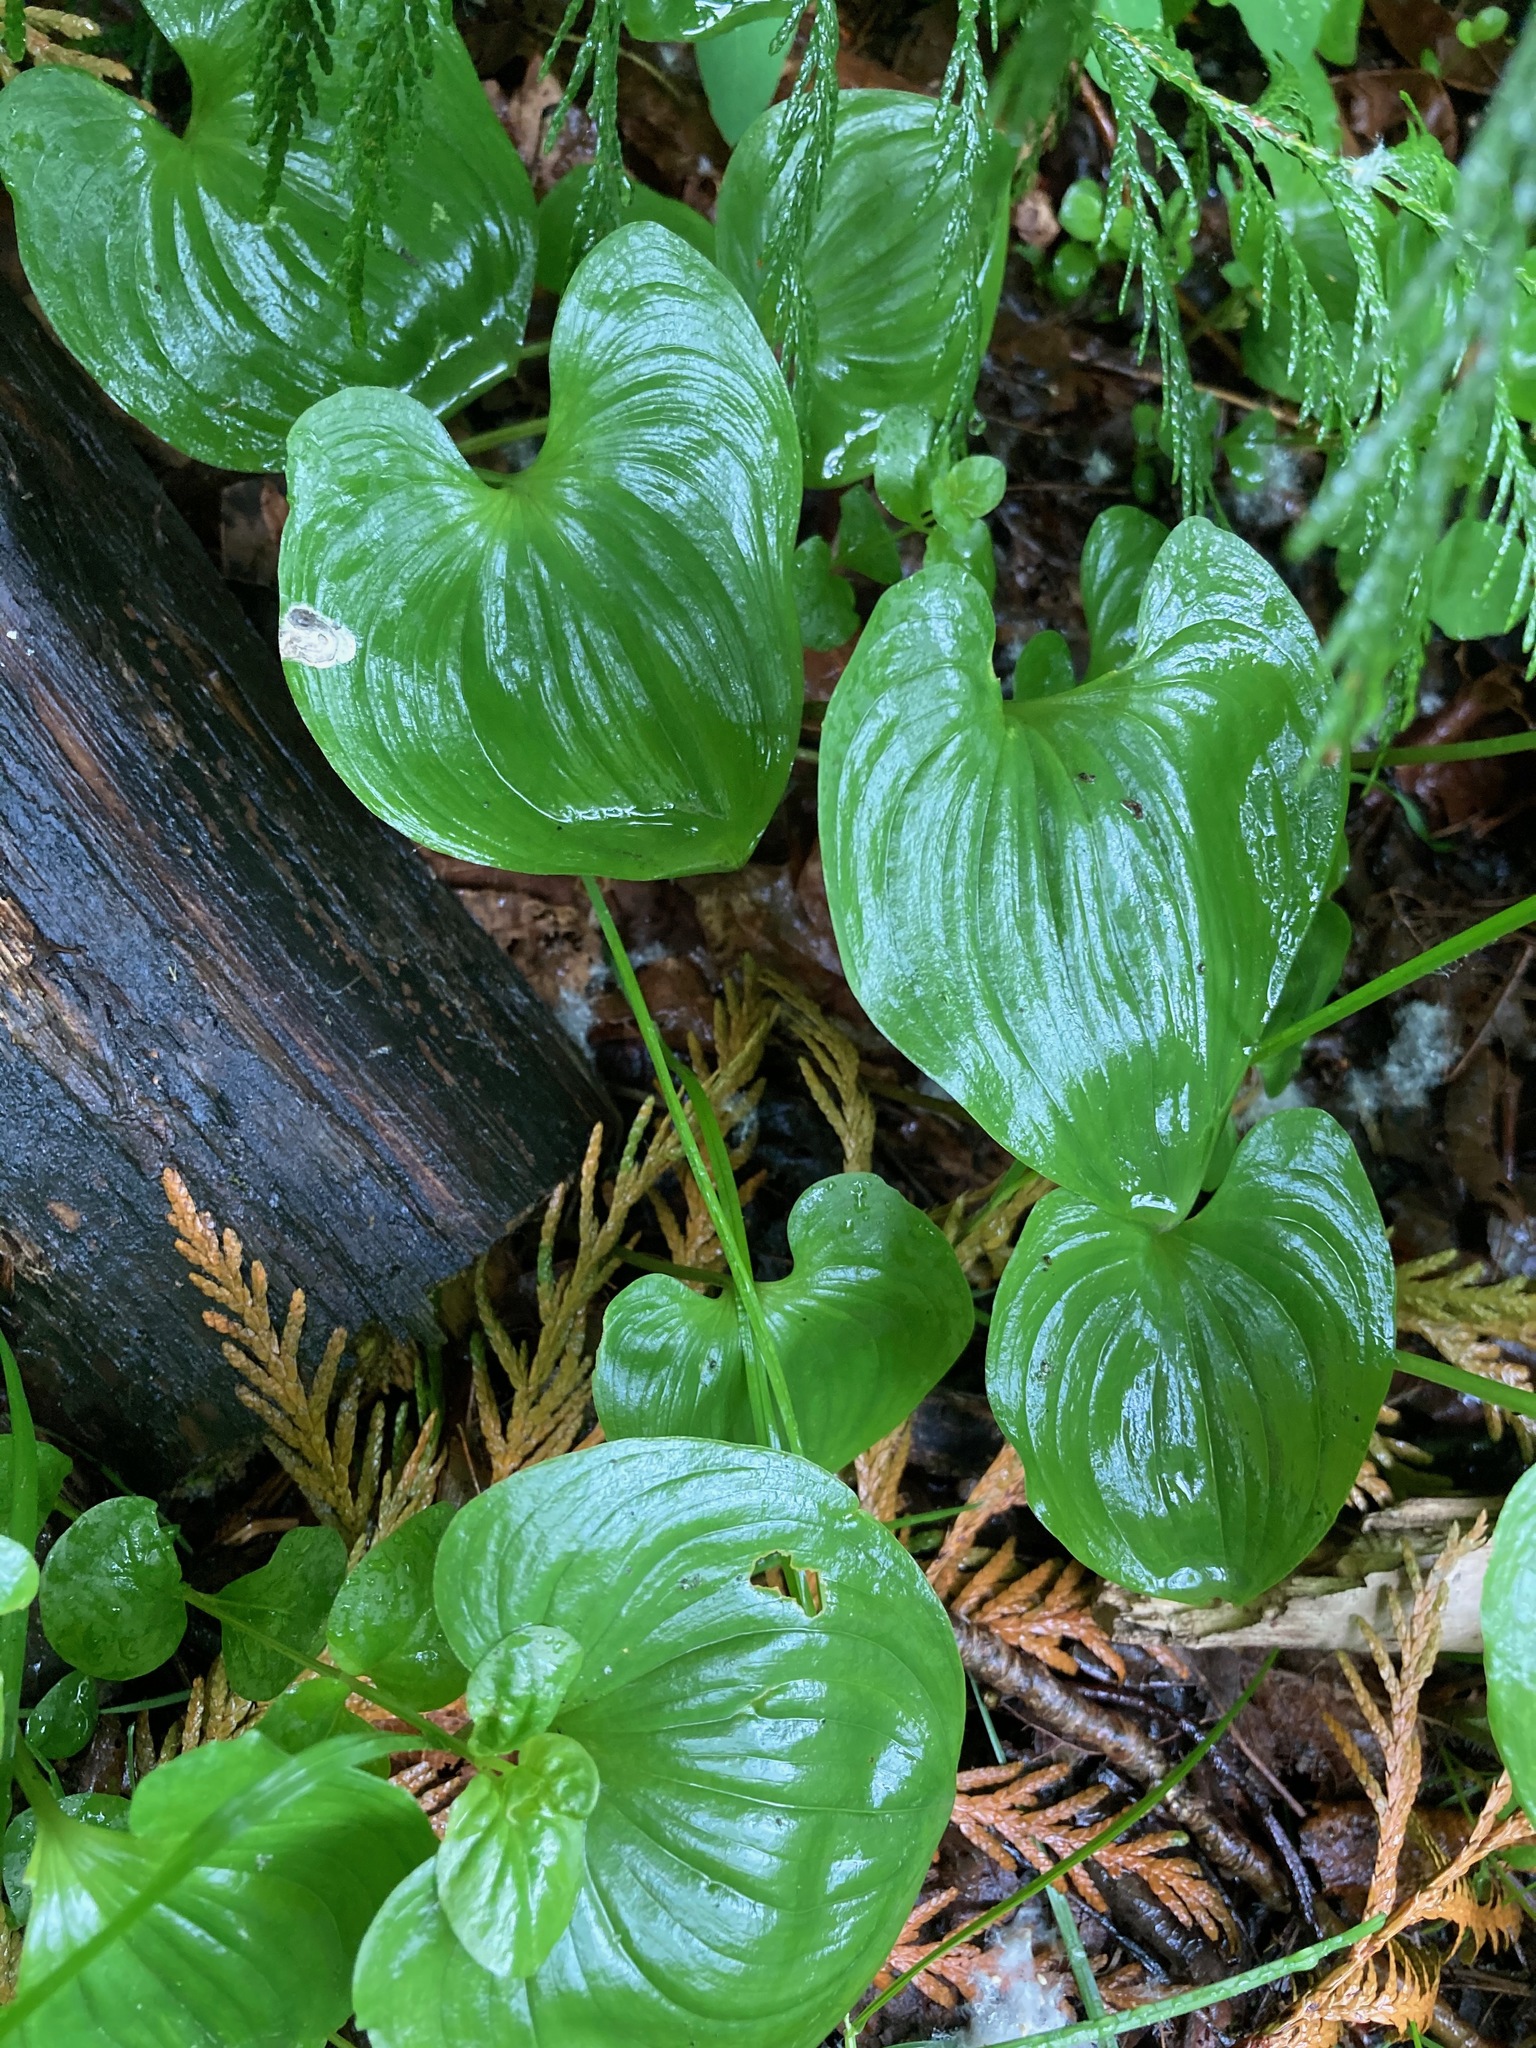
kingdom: Plantae
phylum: Tracheophyta
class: Liliopsida
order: Asparagales
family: Asparagaceae
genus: Maianthemum
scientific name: Maianthemum dilatatum
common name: False lily-of-the-valley
